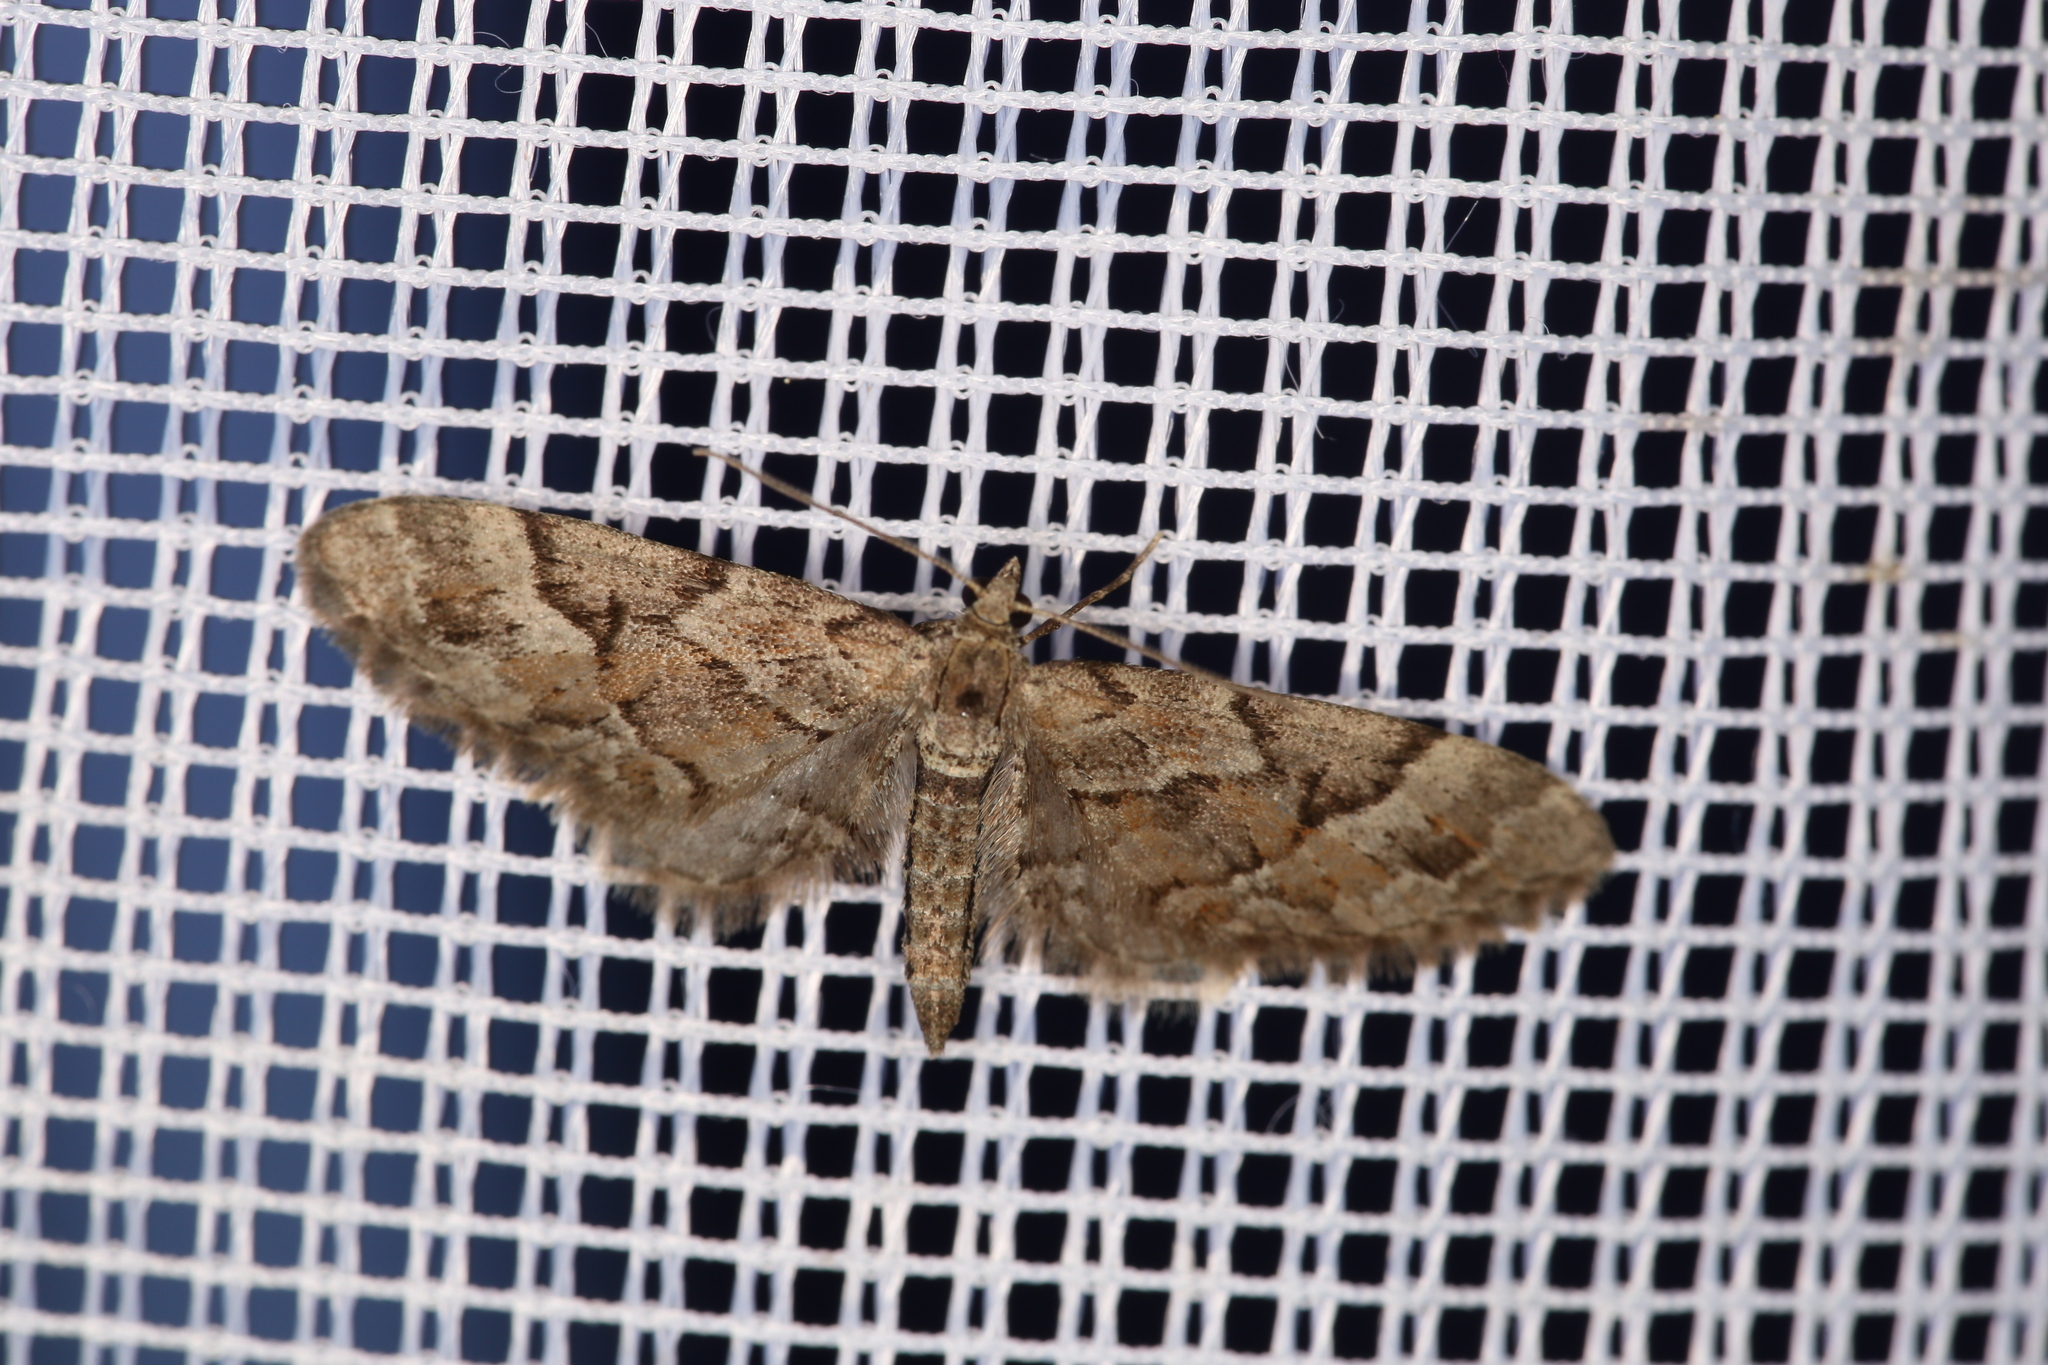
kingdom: Animalia
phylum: Arthropoda
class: Insecta
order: Lepidoptera
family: Geometridae
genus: Eupithecia
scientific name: Eupithecia lanceata
